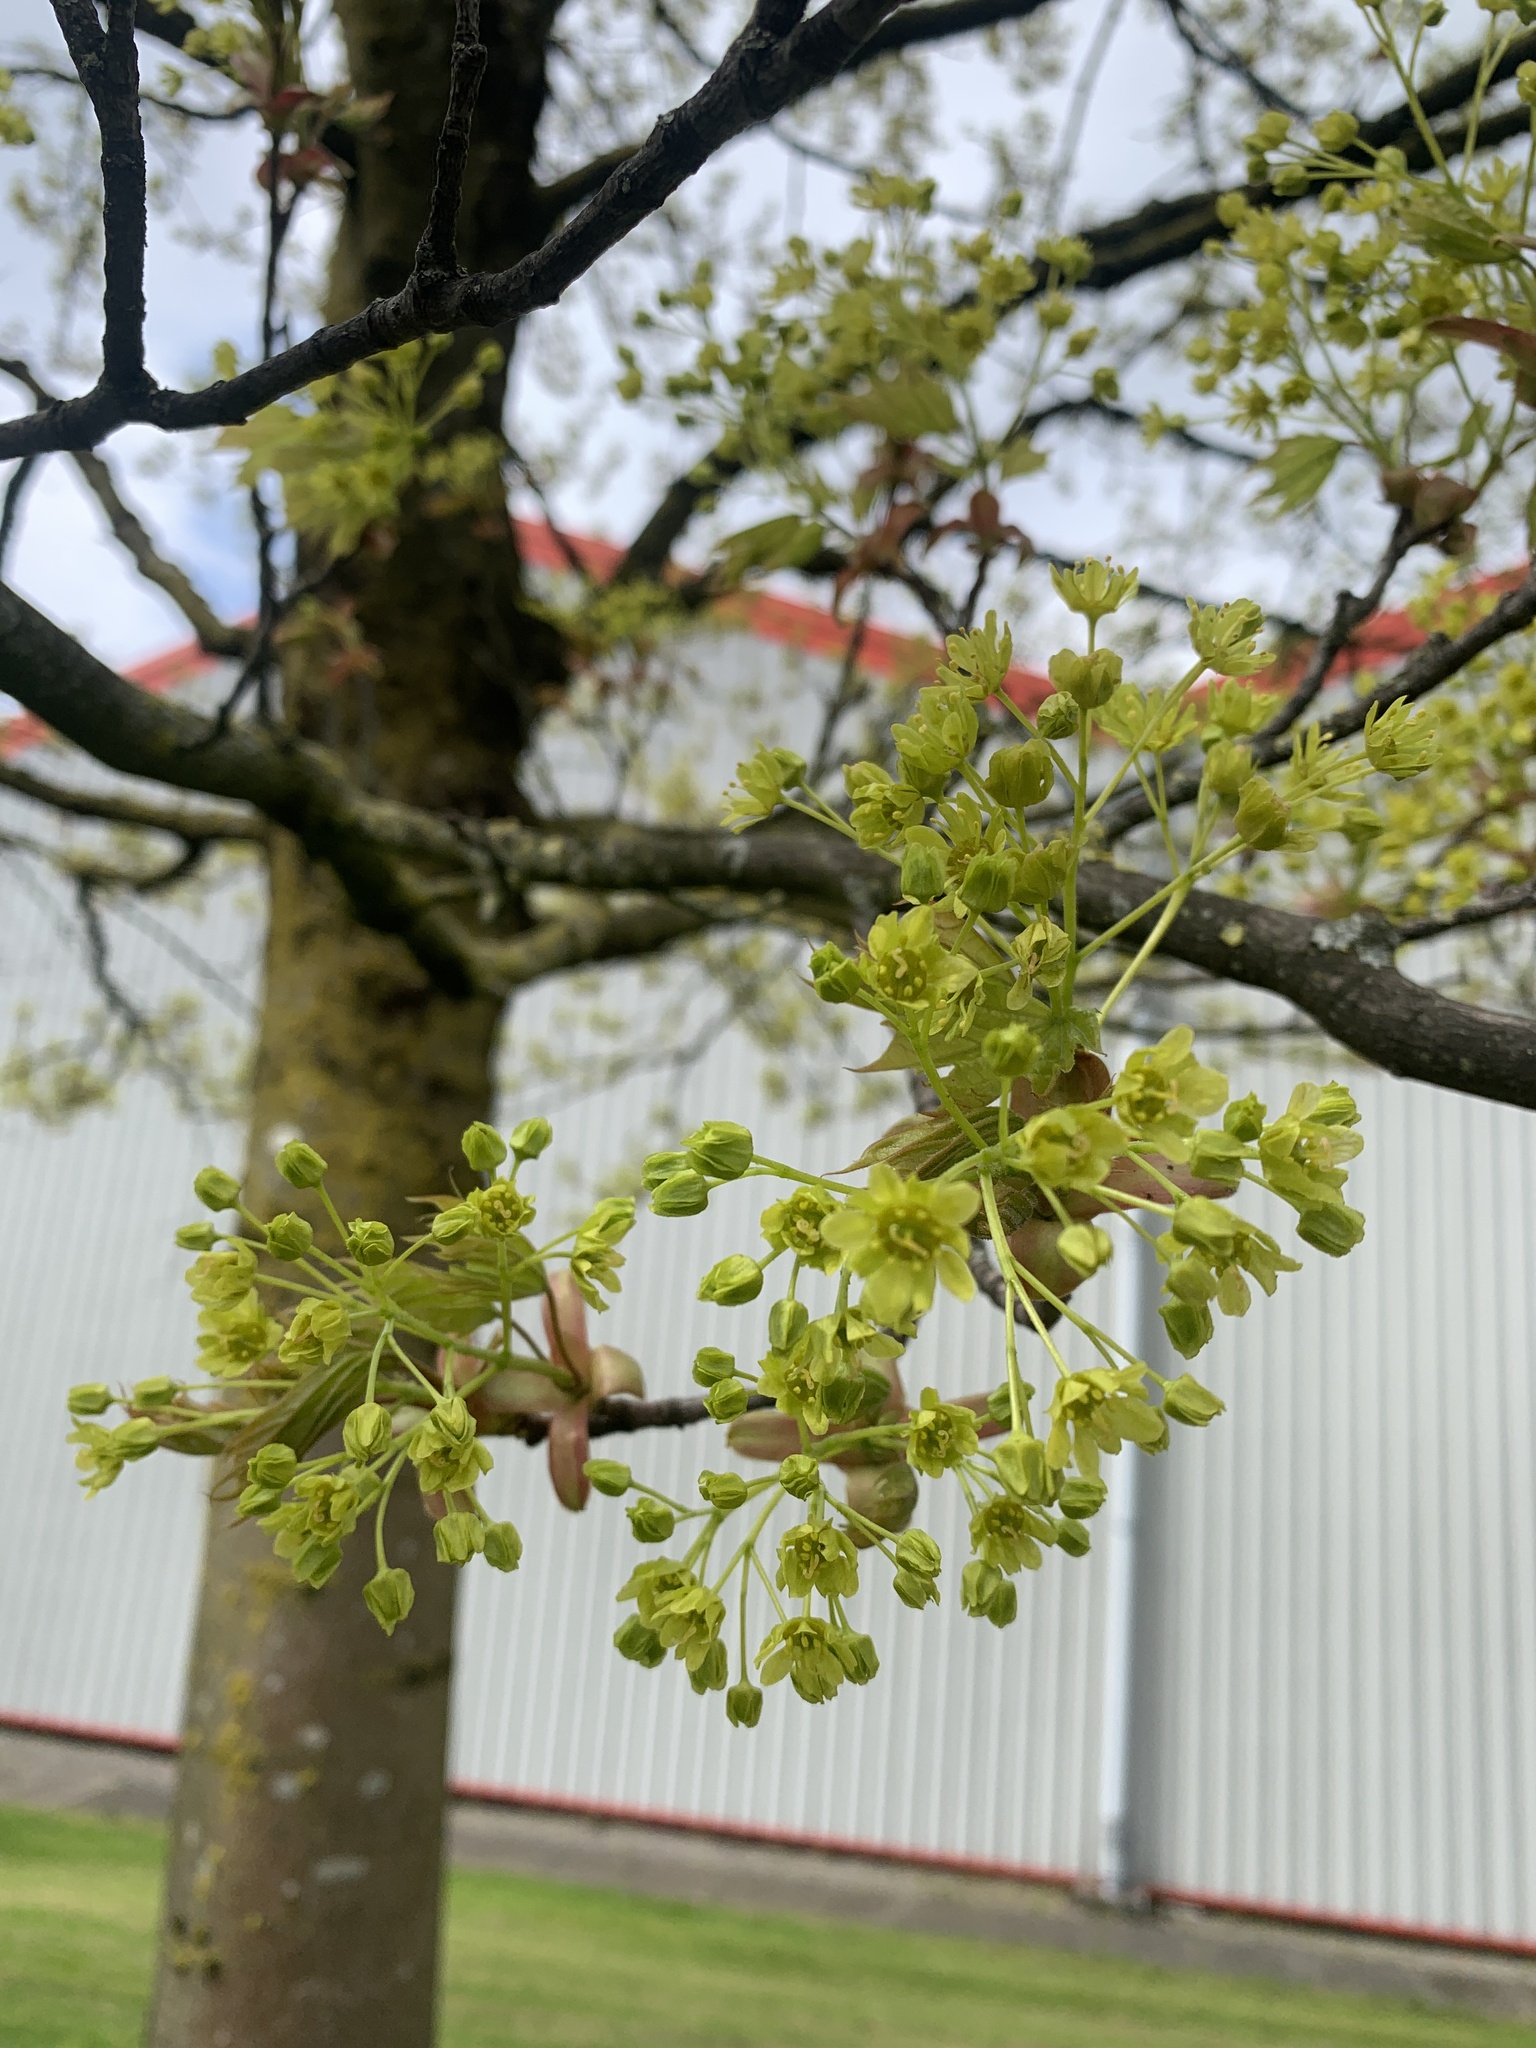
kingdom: Plantae
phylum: Tracheophyta
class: Magnoliopsida
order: Sapindales
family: Sapindaceae
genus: Acer
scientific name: Acer platanoides
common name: Norway maple
